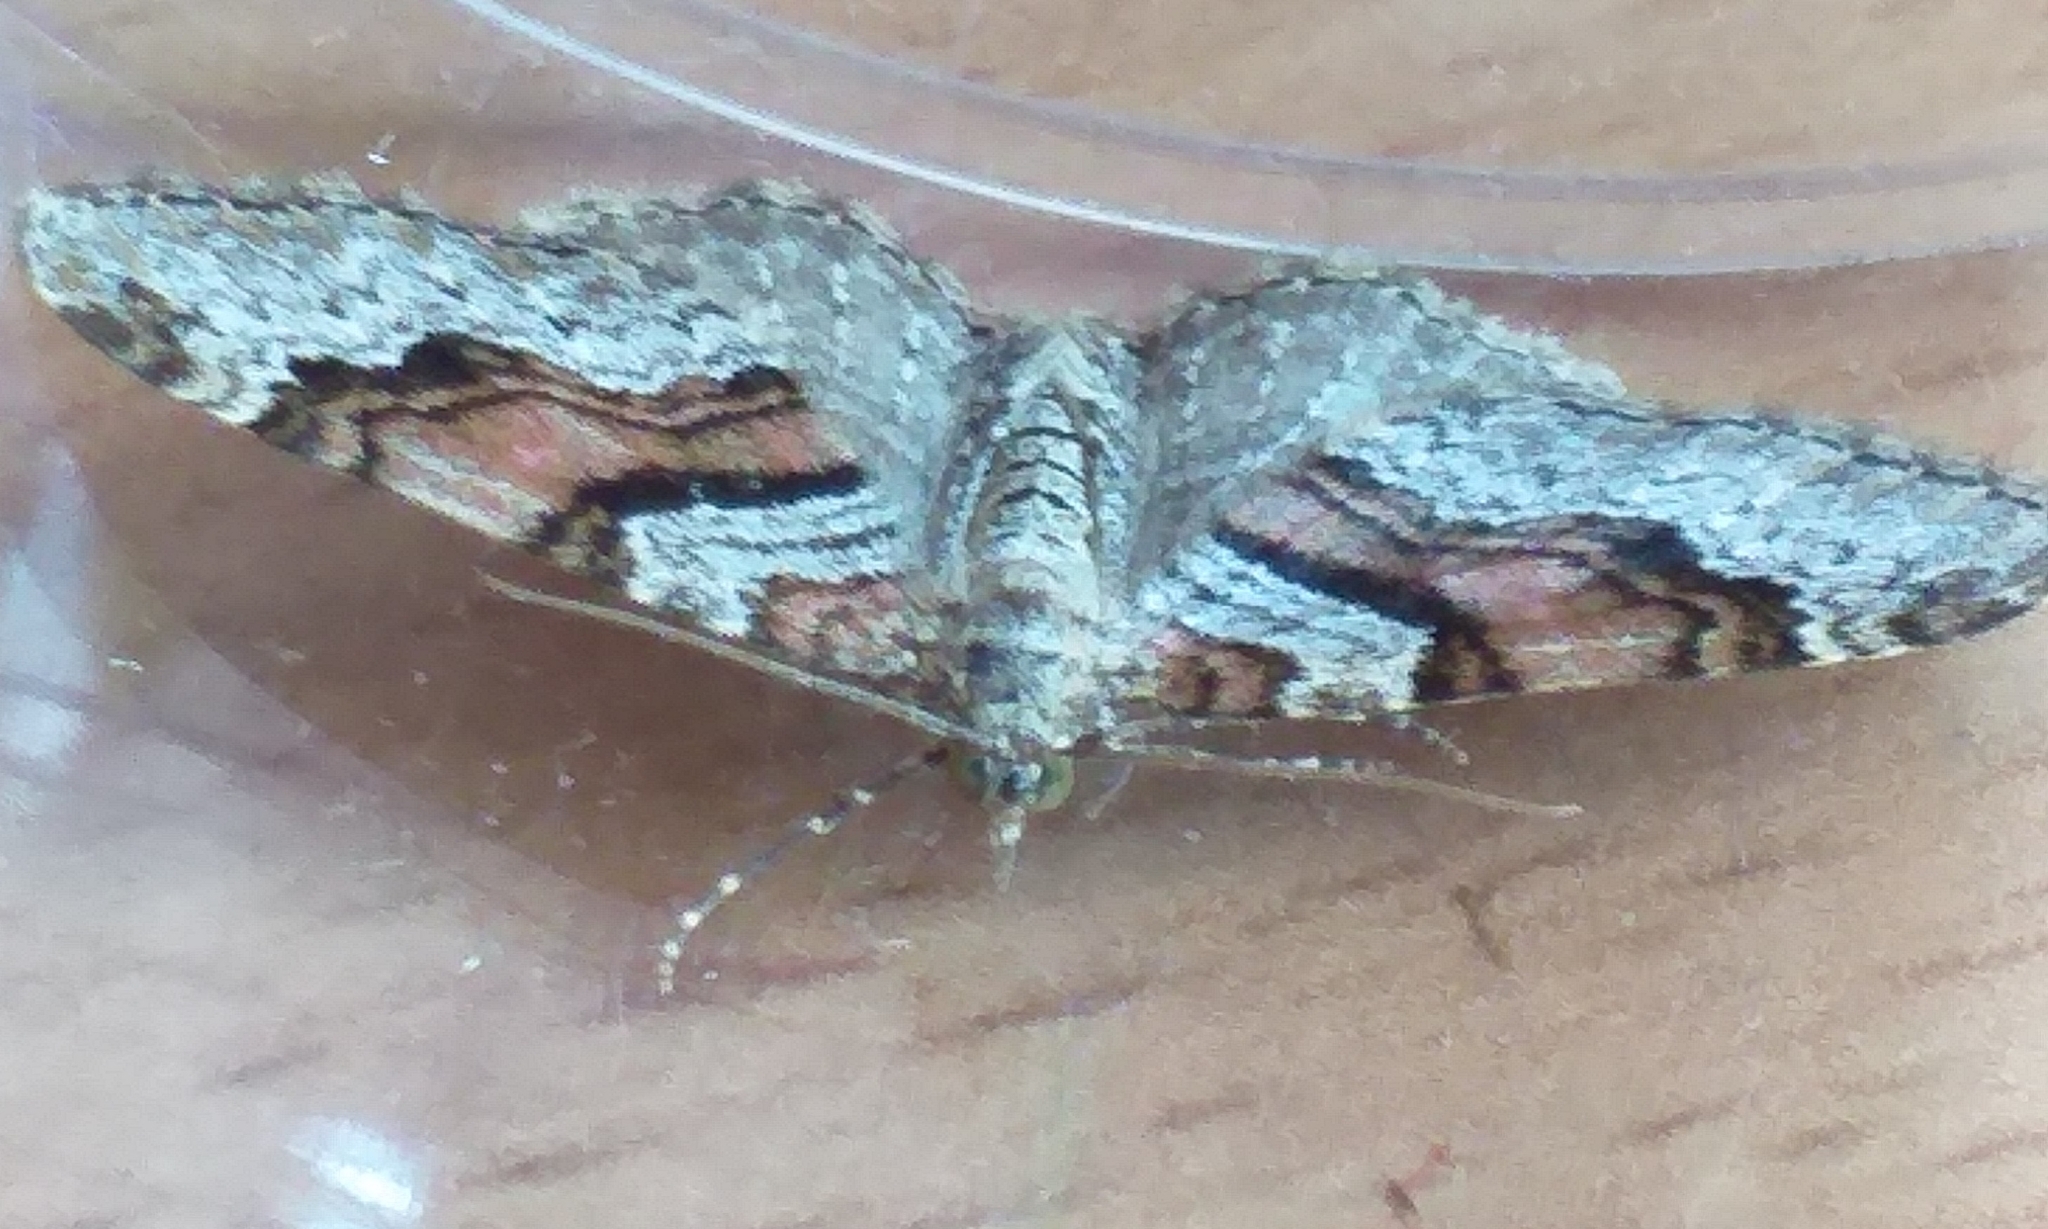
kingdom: Animalia
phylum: Arthropoda
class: Insecta
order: Lepidoptera
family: Geometridae
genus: Xanthorhoe
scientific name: Xanthorhoe designata
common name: Flame carpet
